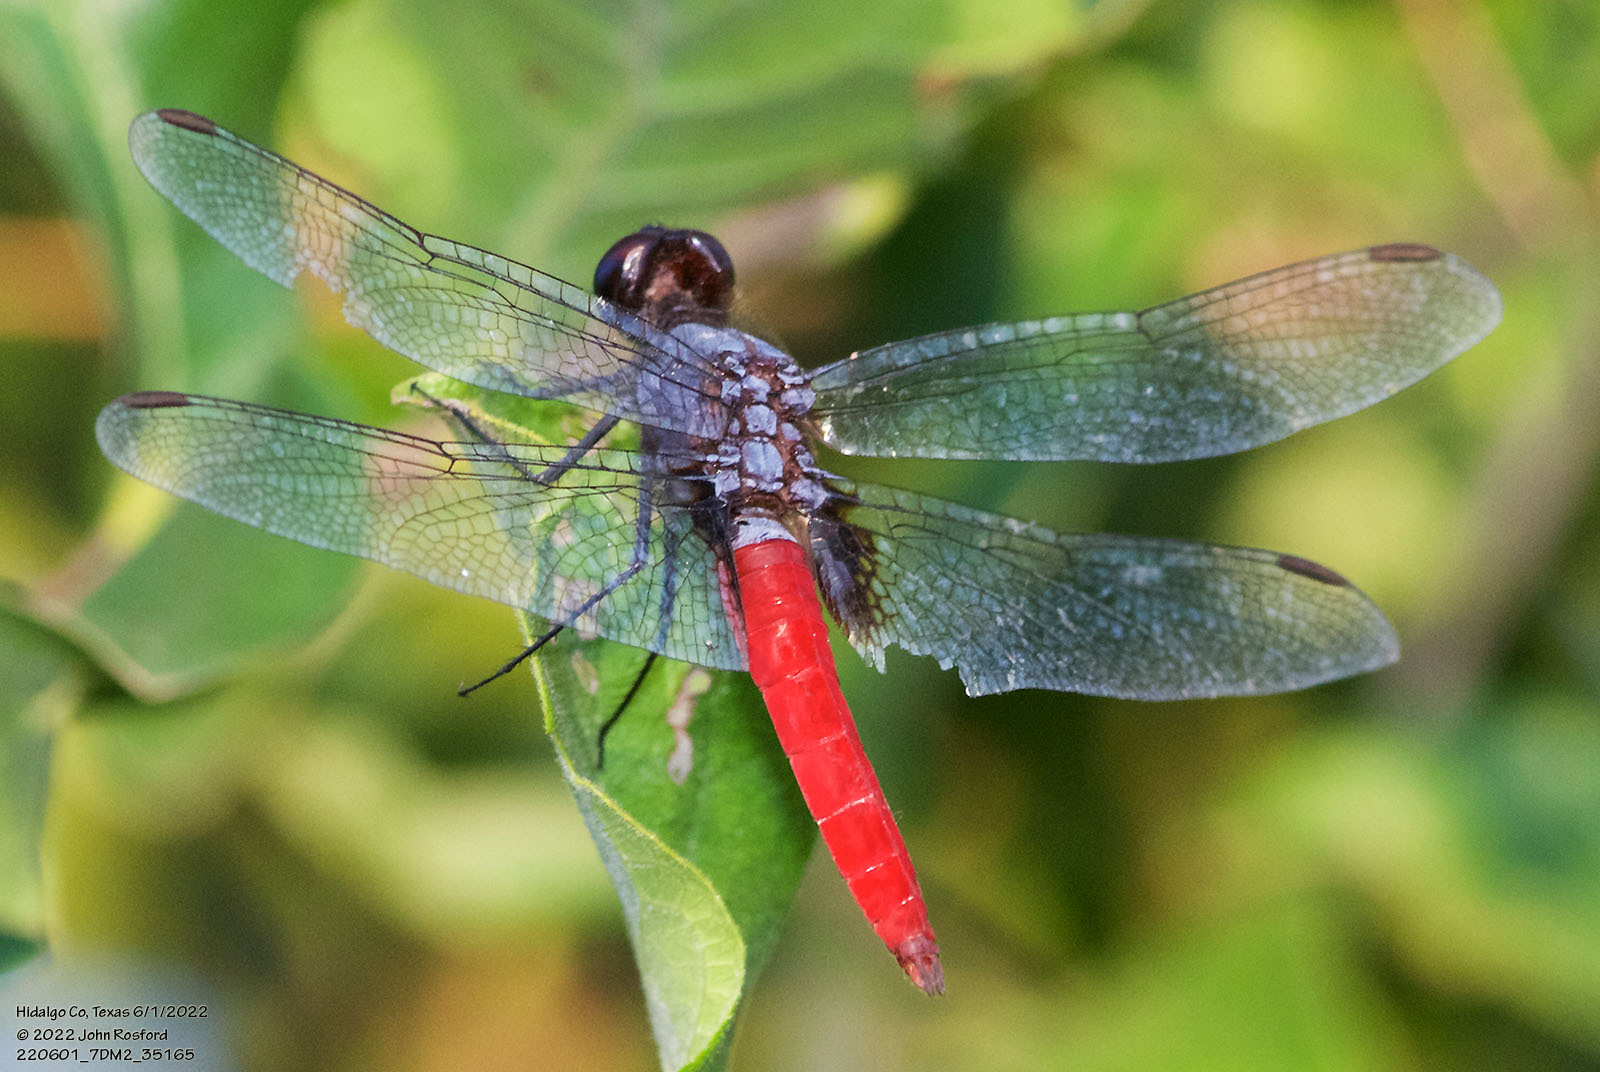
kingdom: Animalia
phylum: Arthropoda
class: Insecta
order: Odonata
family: Libellulidae
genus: Planiplax
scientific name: Planiplax sanguiniventris
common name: Mexican scarlet-tail
